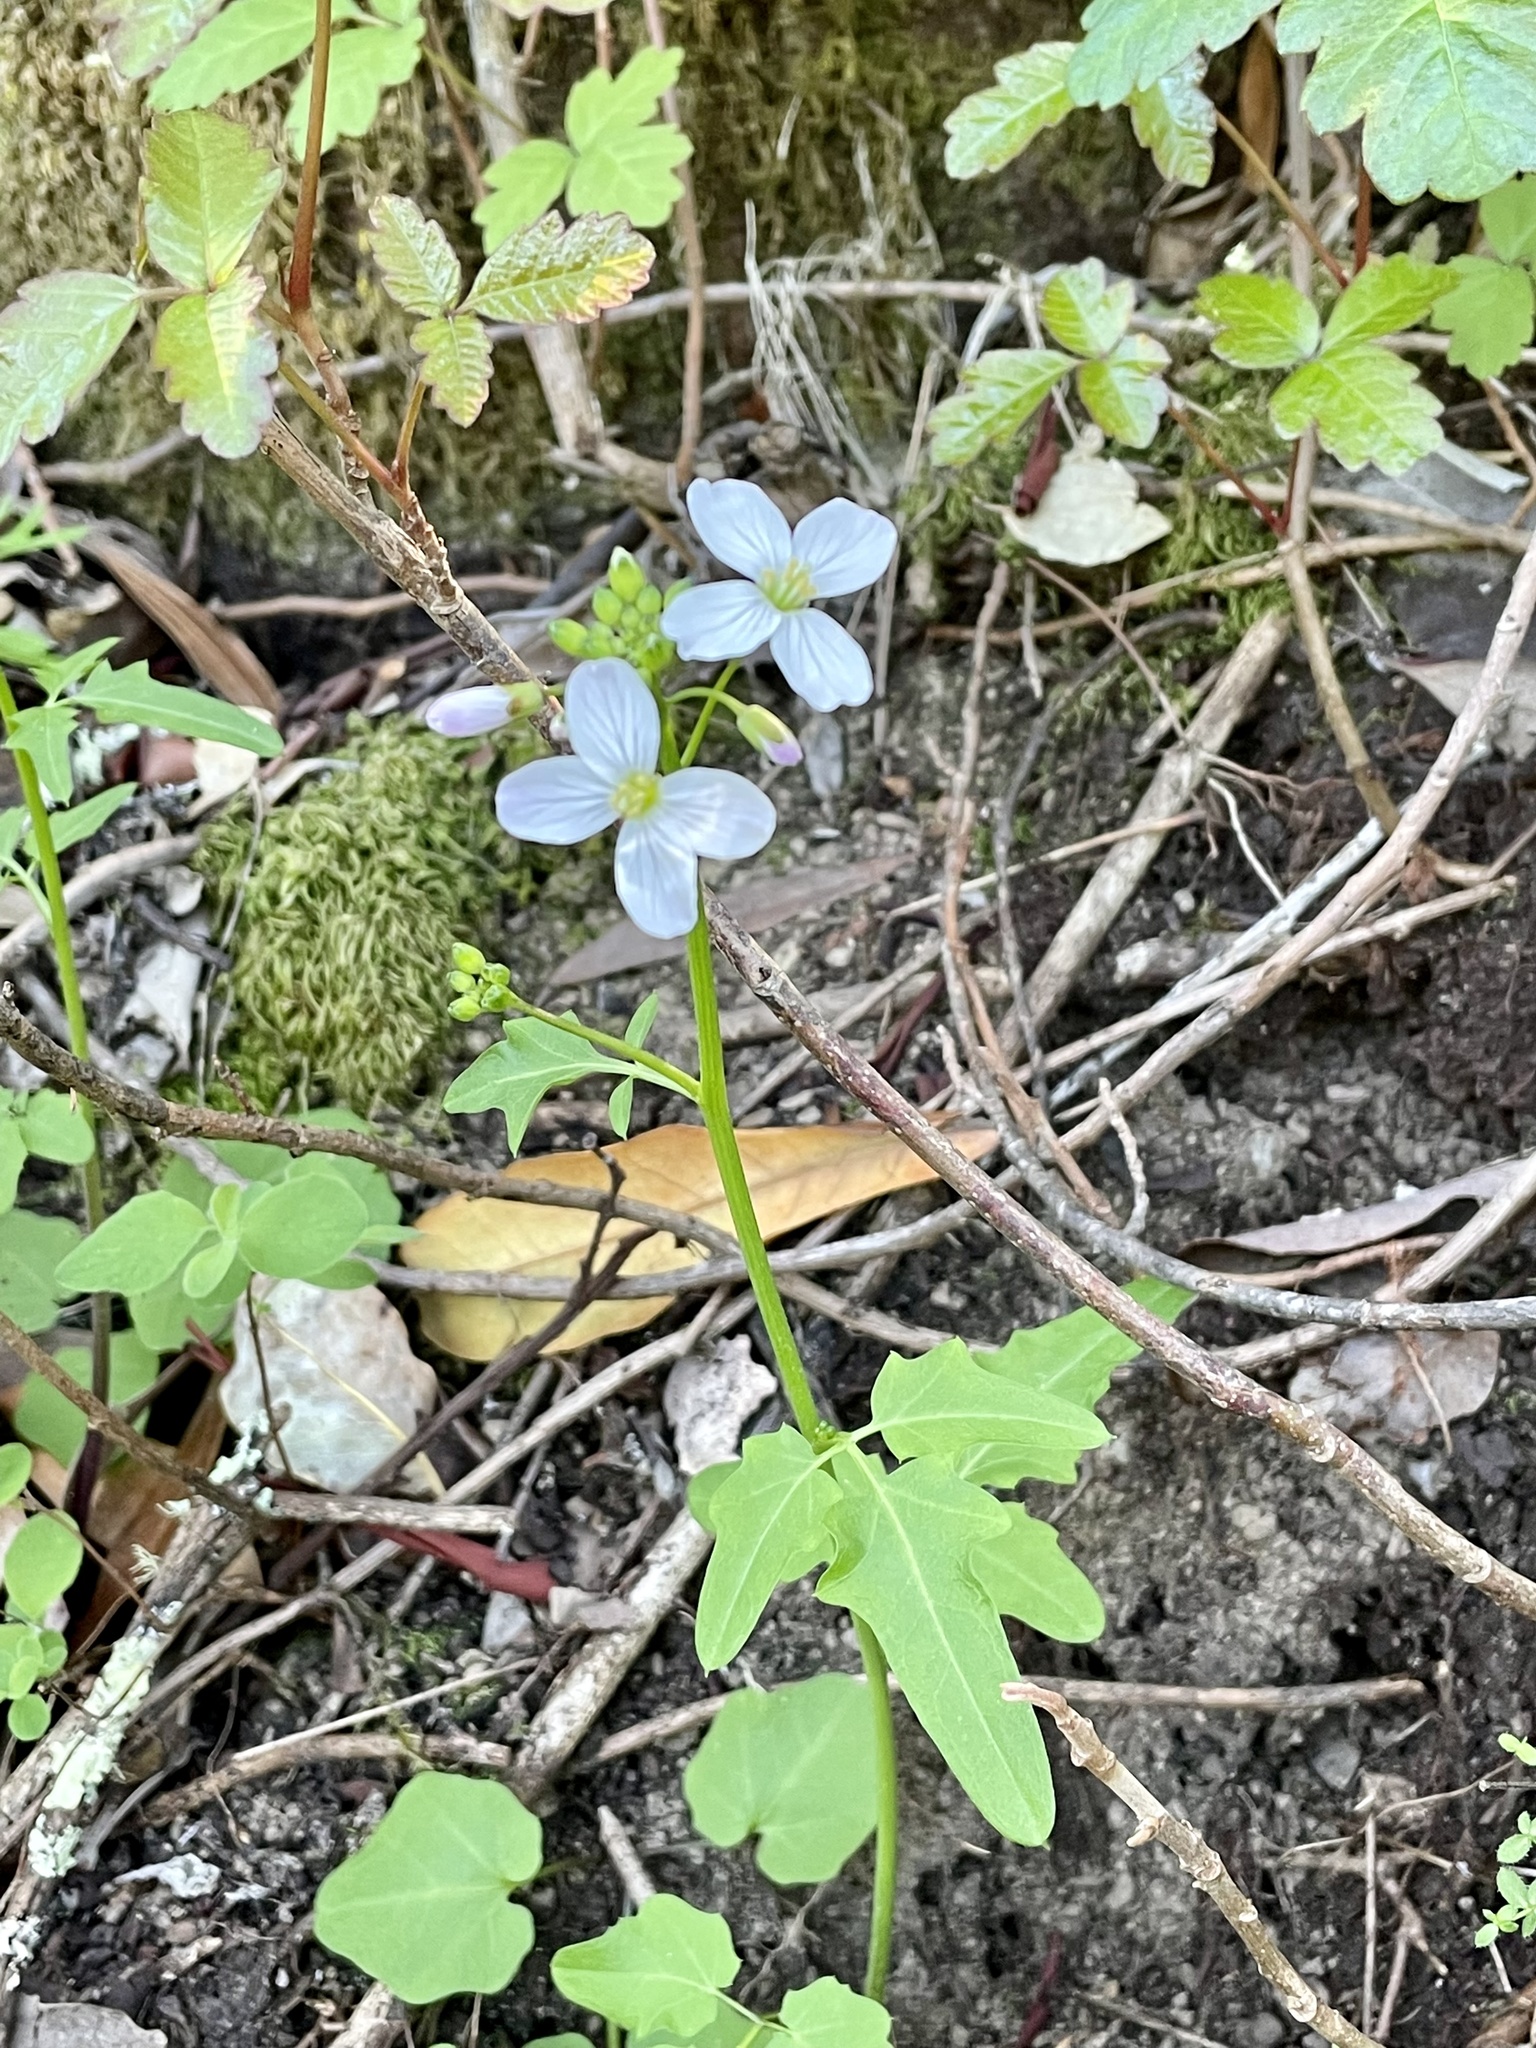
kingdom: Plantae
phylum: Tracheophyta
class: Magnoliopsida
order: Brassicales
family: Brassicaceae
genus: Cardamine
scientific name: Cardamine californica
